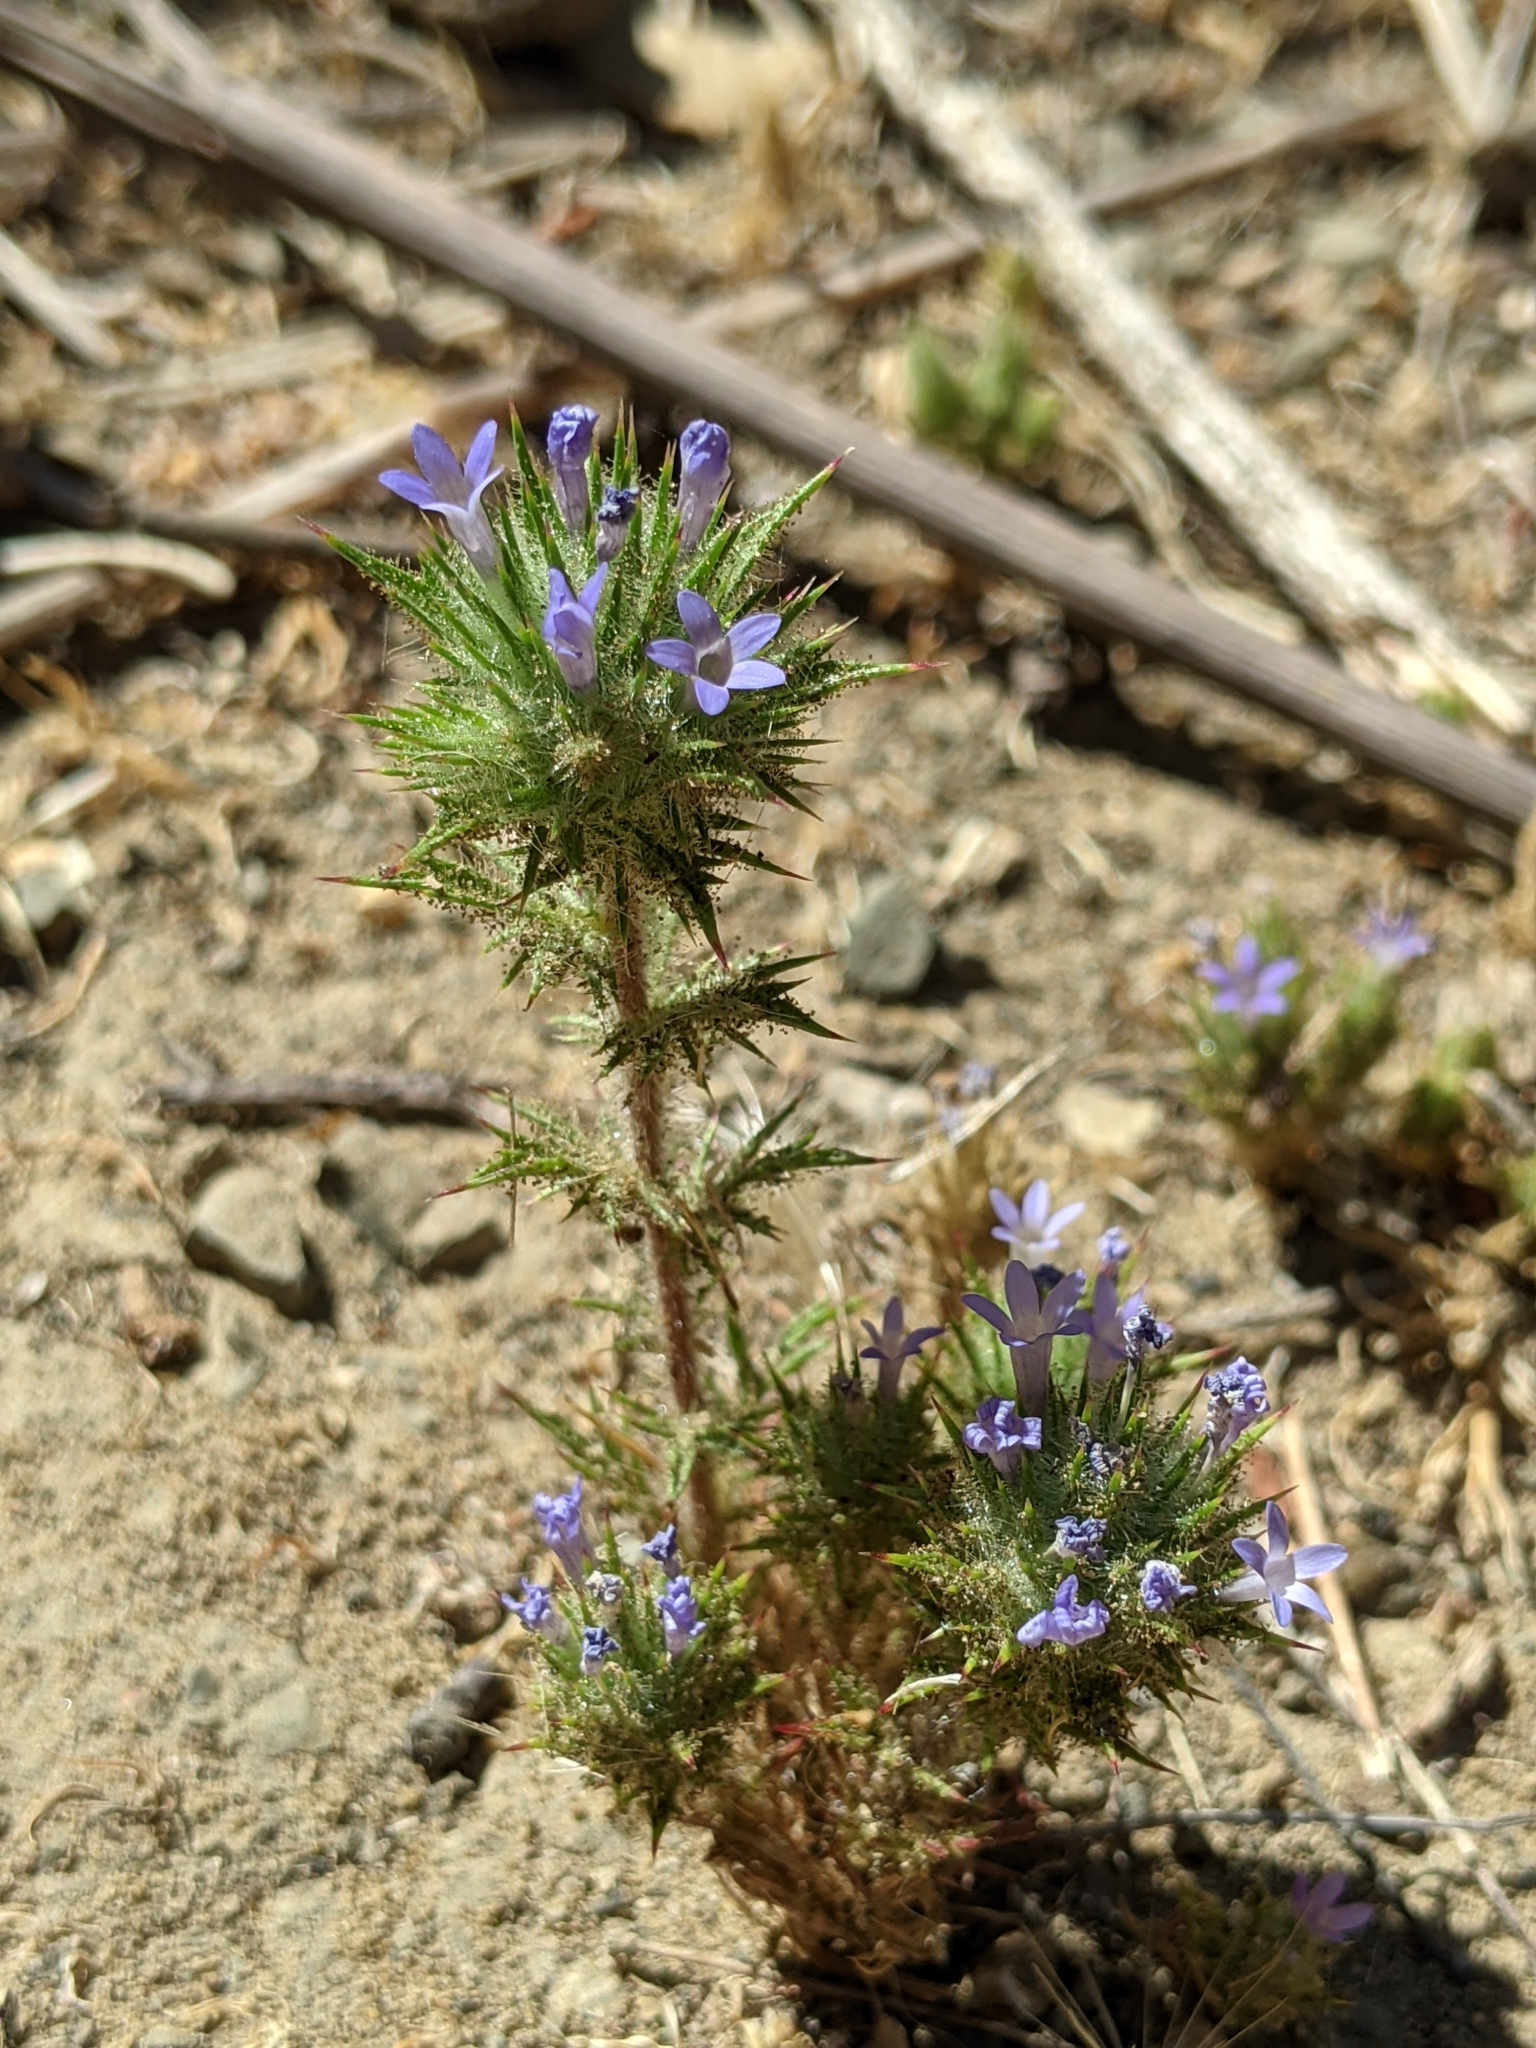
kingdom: Plantae
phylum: Tracheophyta
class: Magnoliopsida
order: Ericales
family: Polemoniaceae
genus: Navarretia
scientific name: Navarretia squarrosa
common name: Skunkweed
